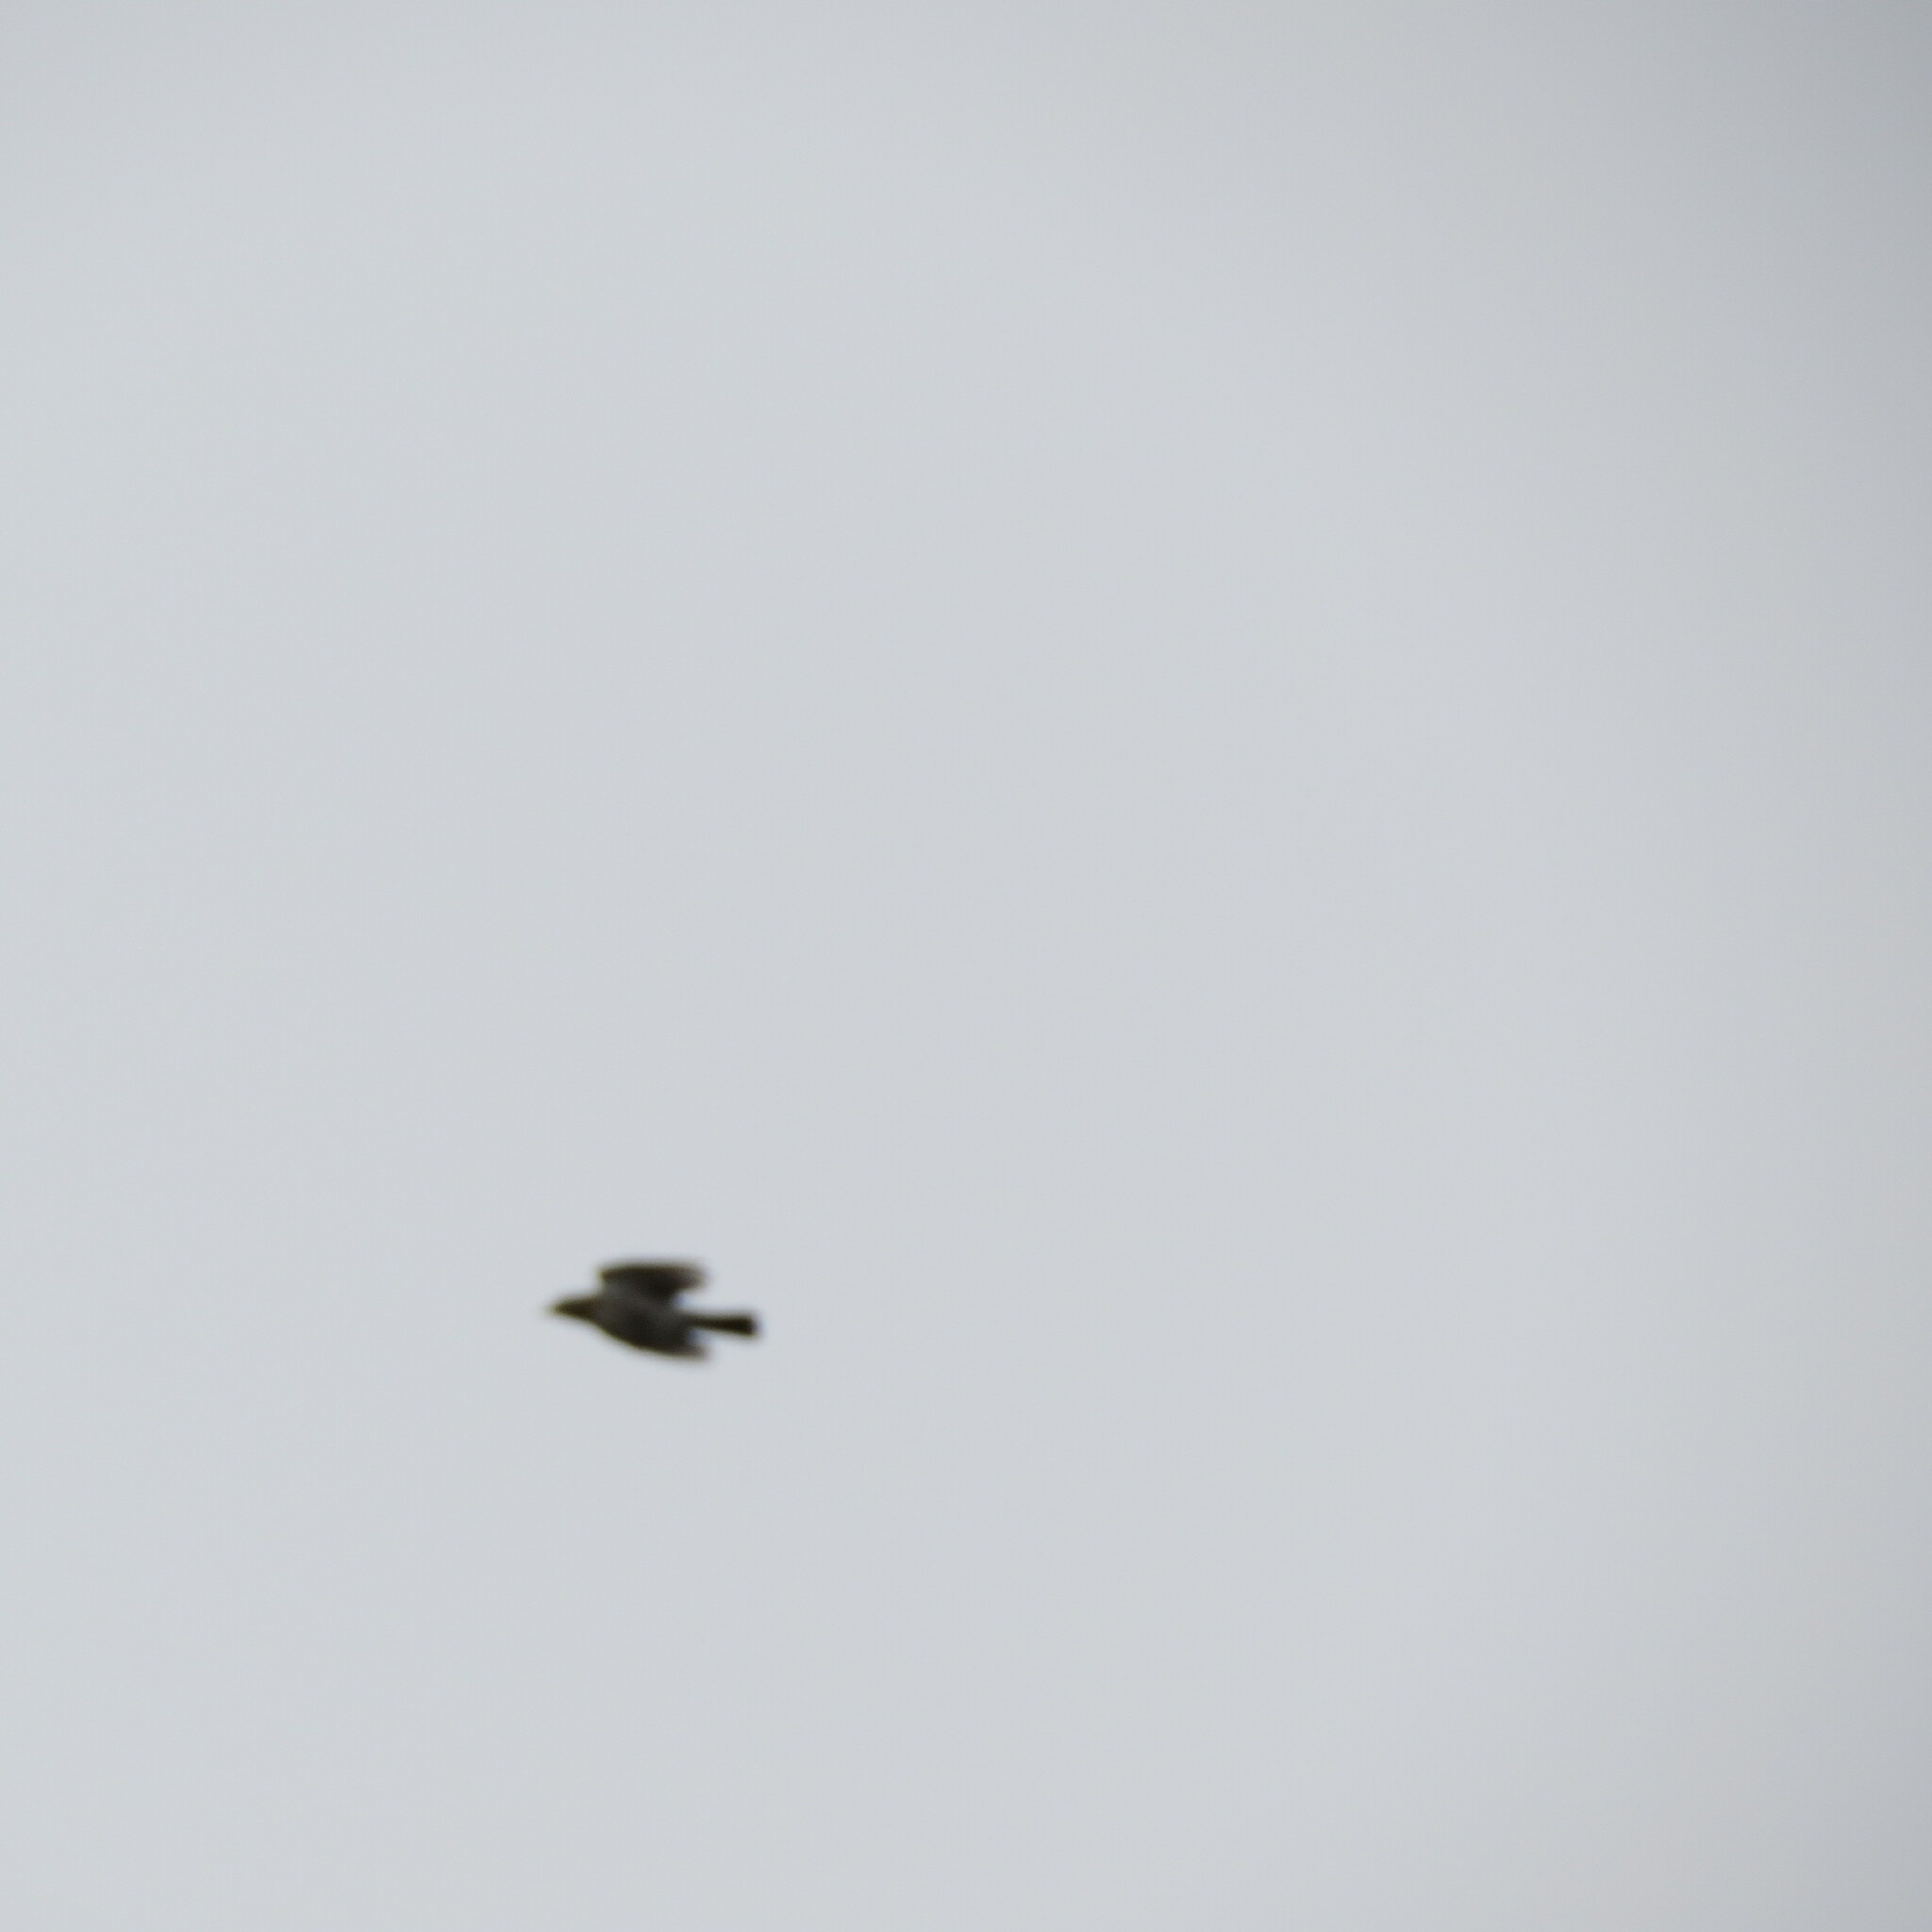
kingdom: Animalia
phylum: Chordata
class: Aves
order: Passeriformes
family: Turdidae
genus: Turdus
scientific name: Turdus pilaris
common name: Fieldfare
